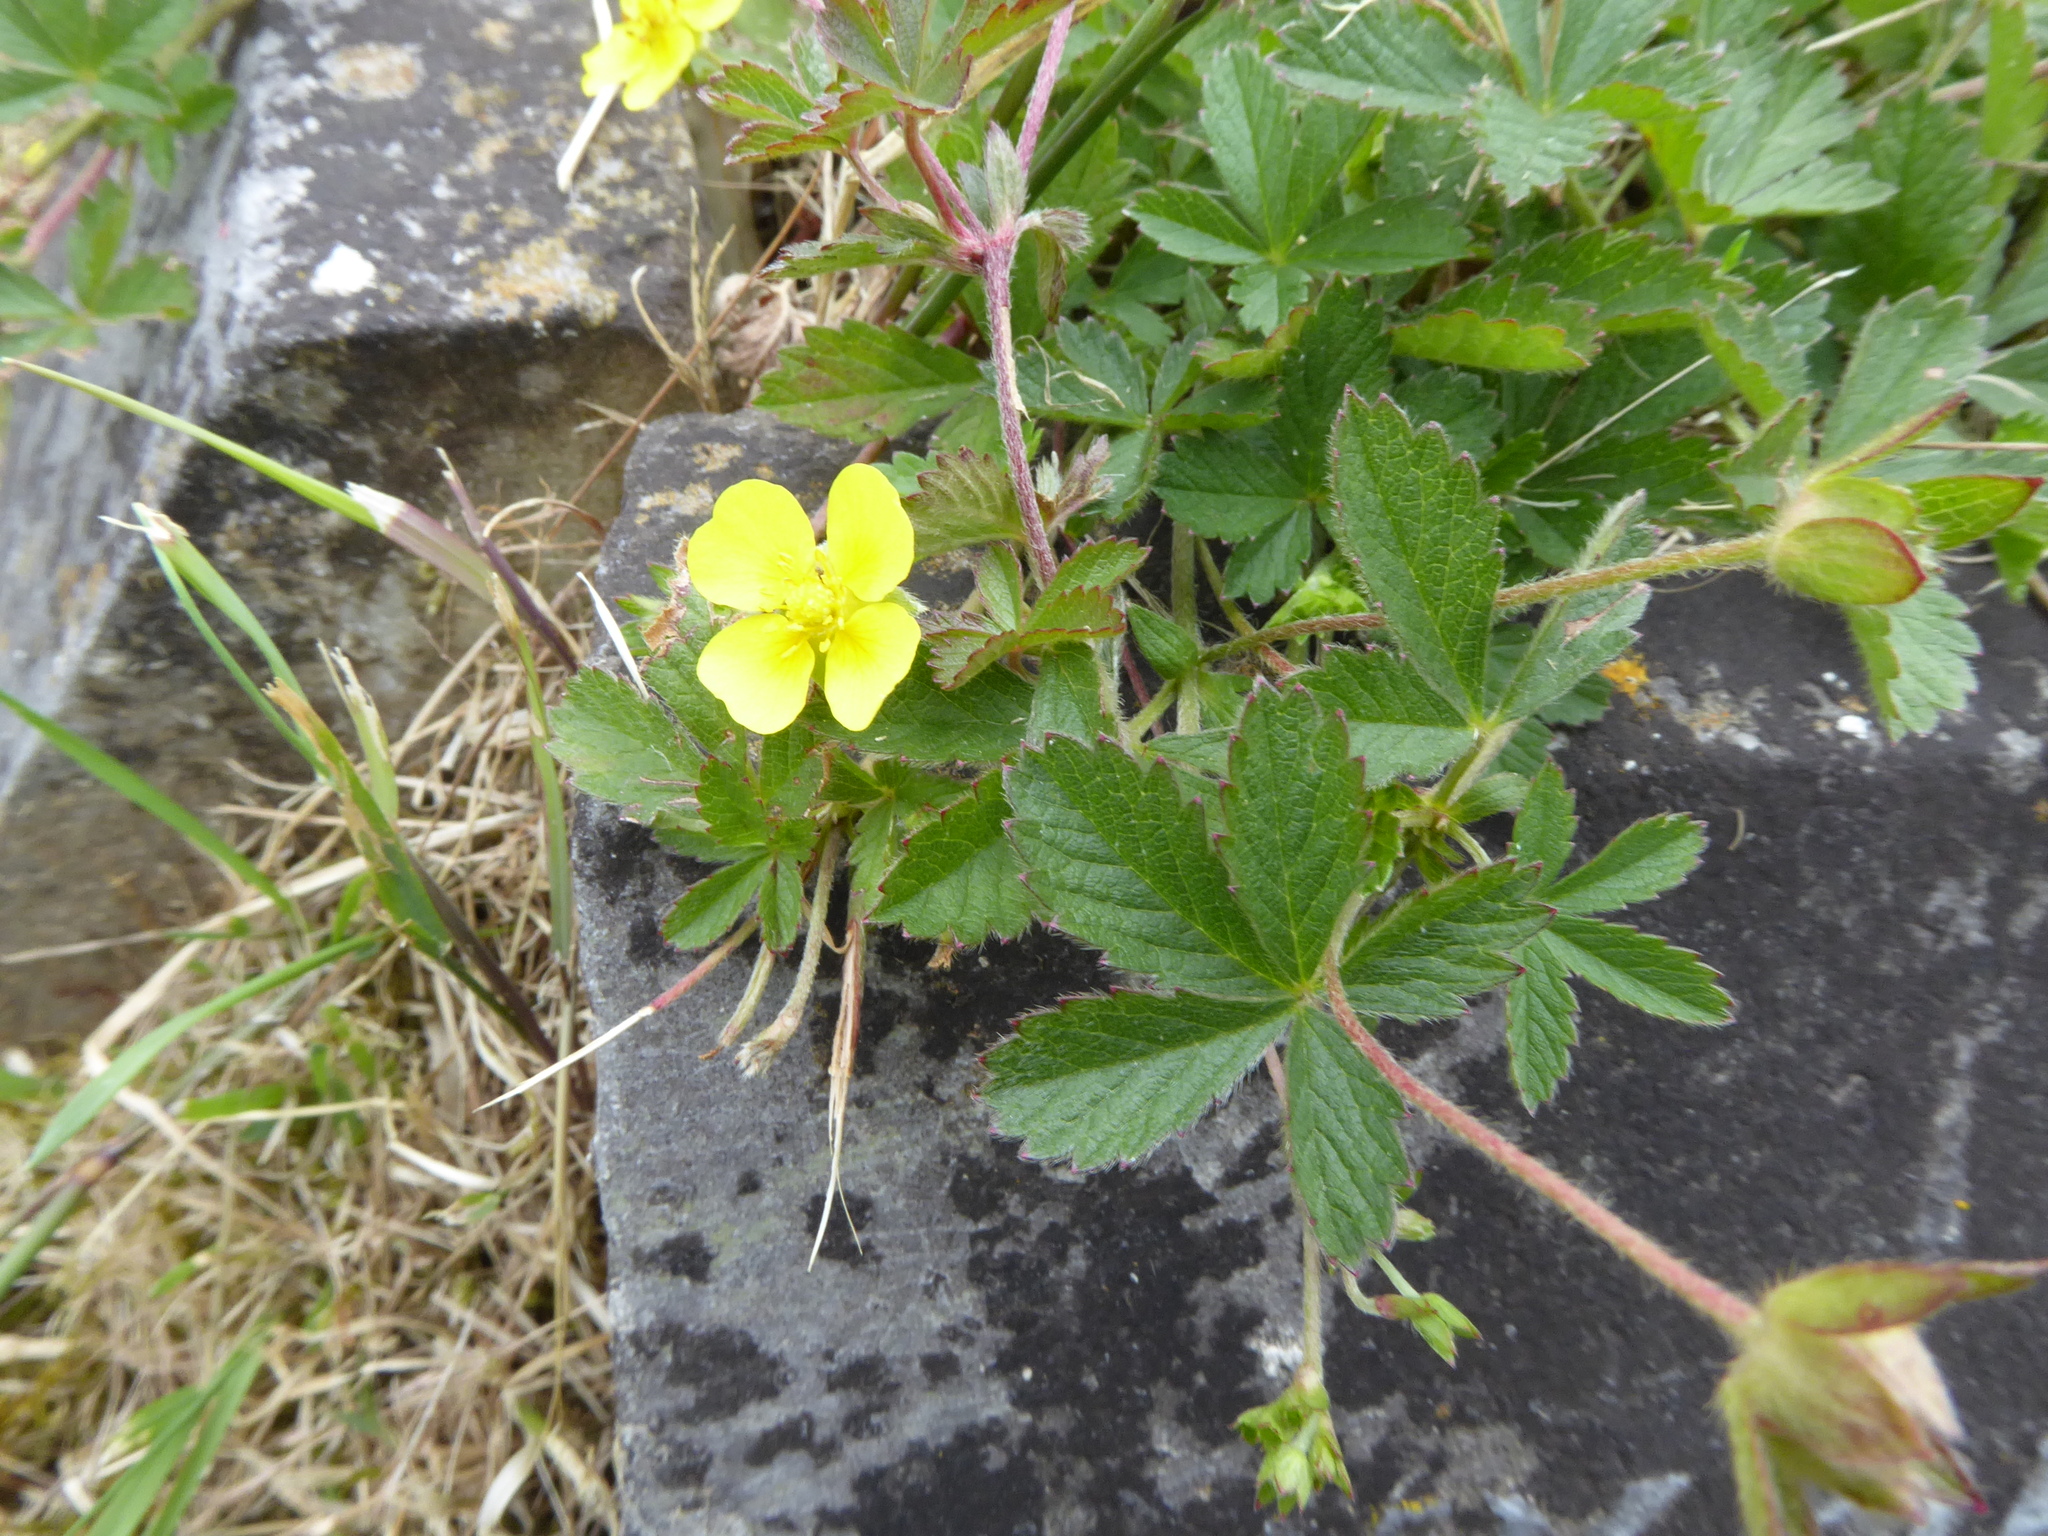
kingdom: Plantae
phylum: Tracheophyta
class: Magnoliopsida
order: Rosales
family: Rosaceae
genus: Potentilla
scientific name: Potentilla erecta
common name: Tormentil
